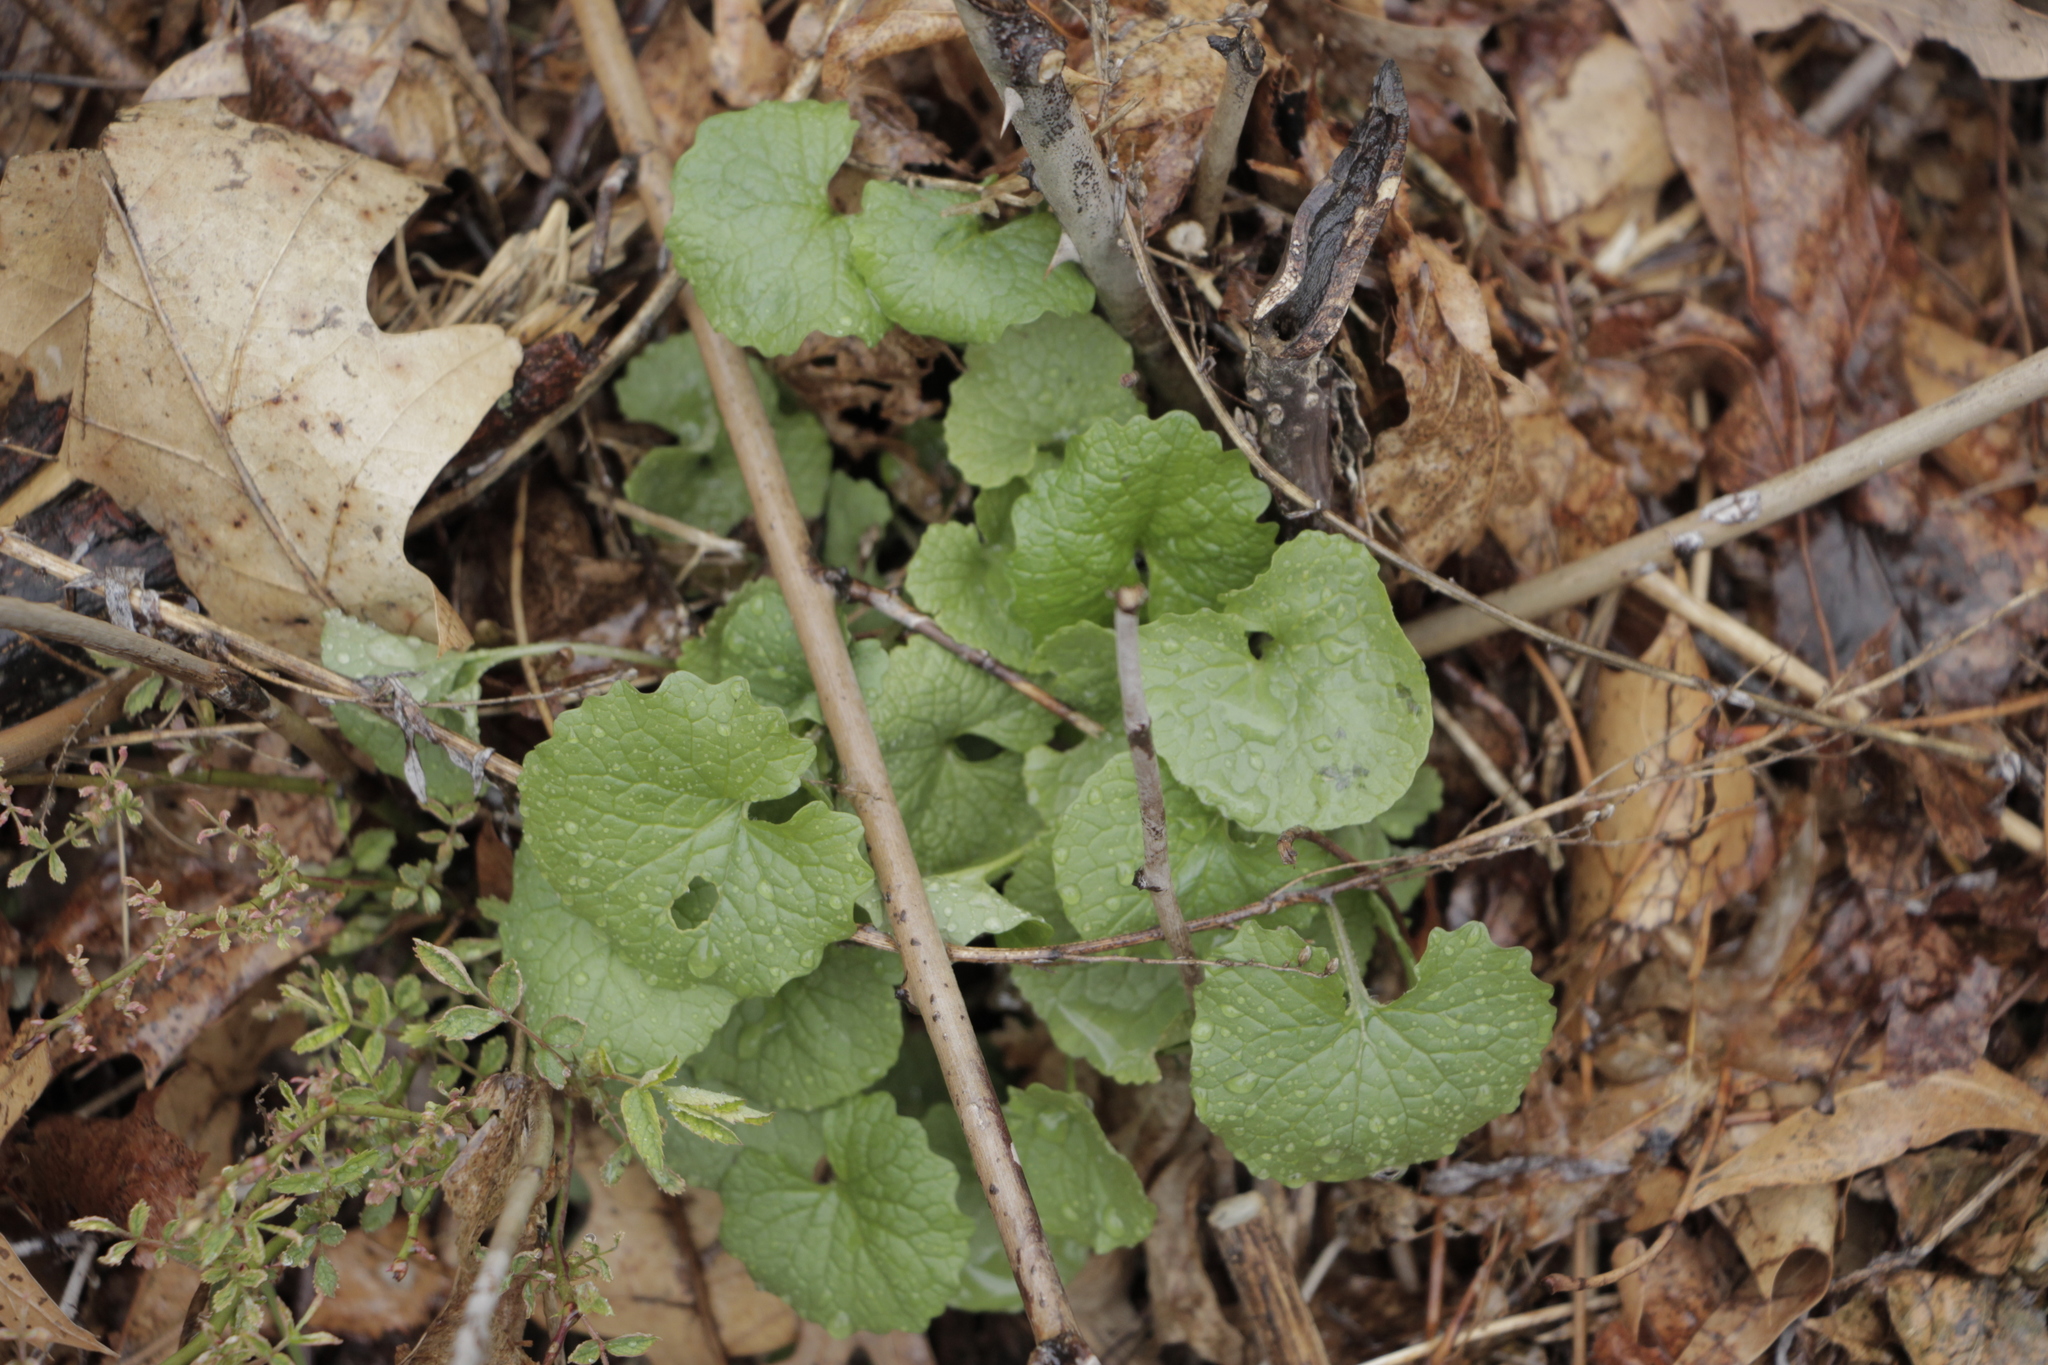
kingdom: Plantae
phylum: Tracheophyta
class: Magnoliopsida
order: Brassicales
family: Brassicaceae
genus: Alliaria
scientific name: Alliaria petiolata
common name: Garlic mustard
